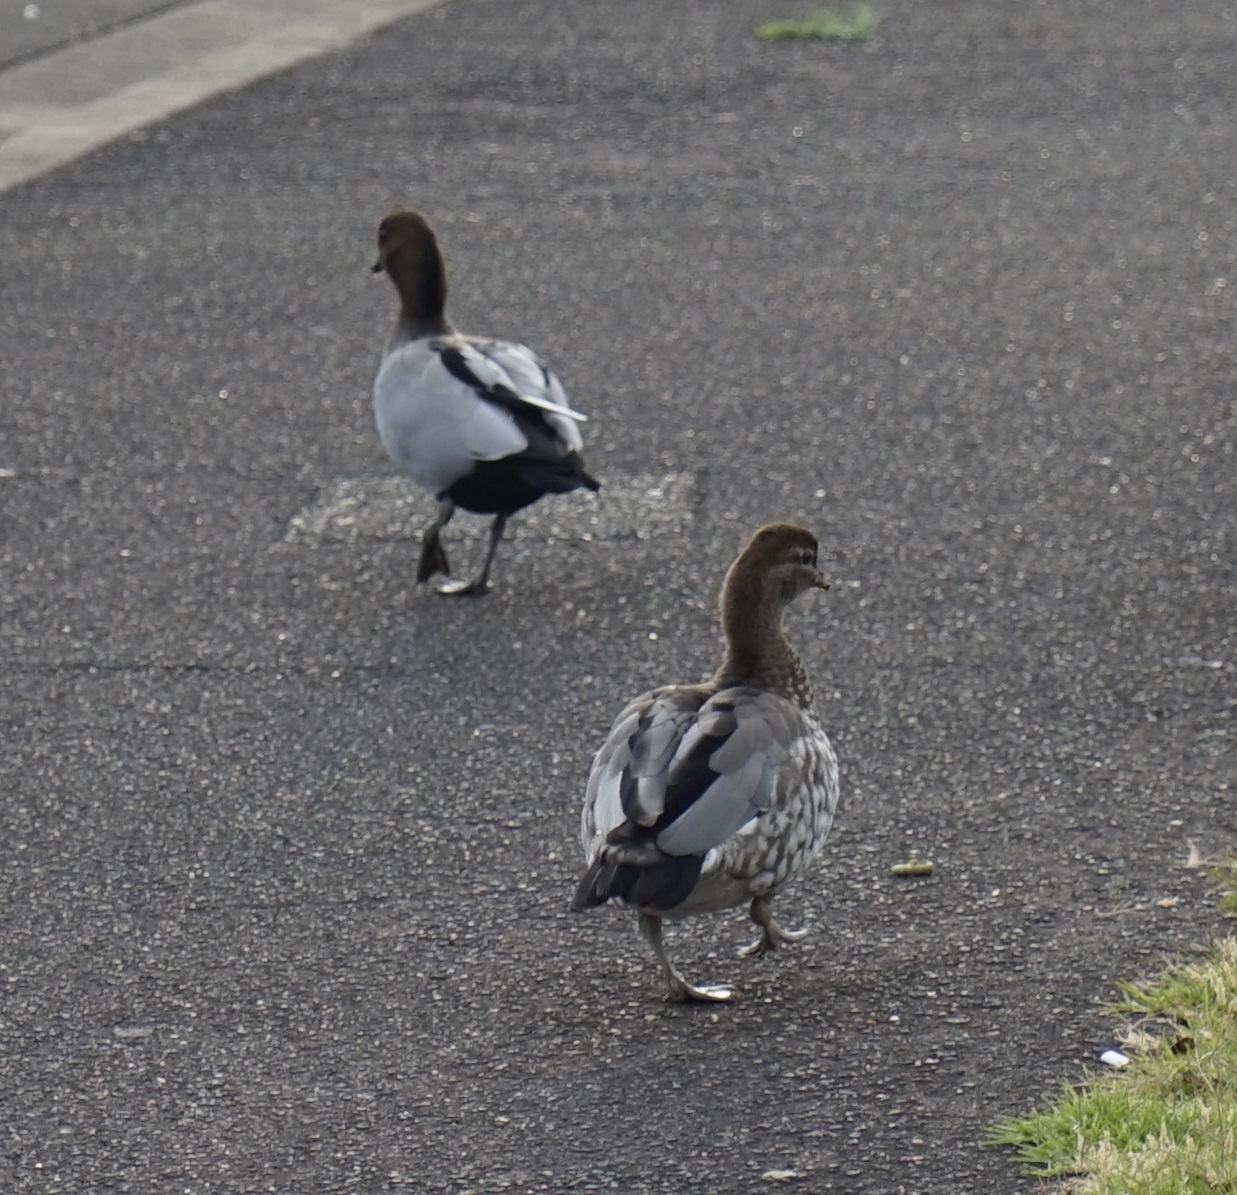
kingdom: Animalia
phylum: Chordata
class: Aves
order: Anseriformes
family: Anatidae
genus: Chenonetta
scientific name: Chenonetta jubata
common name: Maned duck
